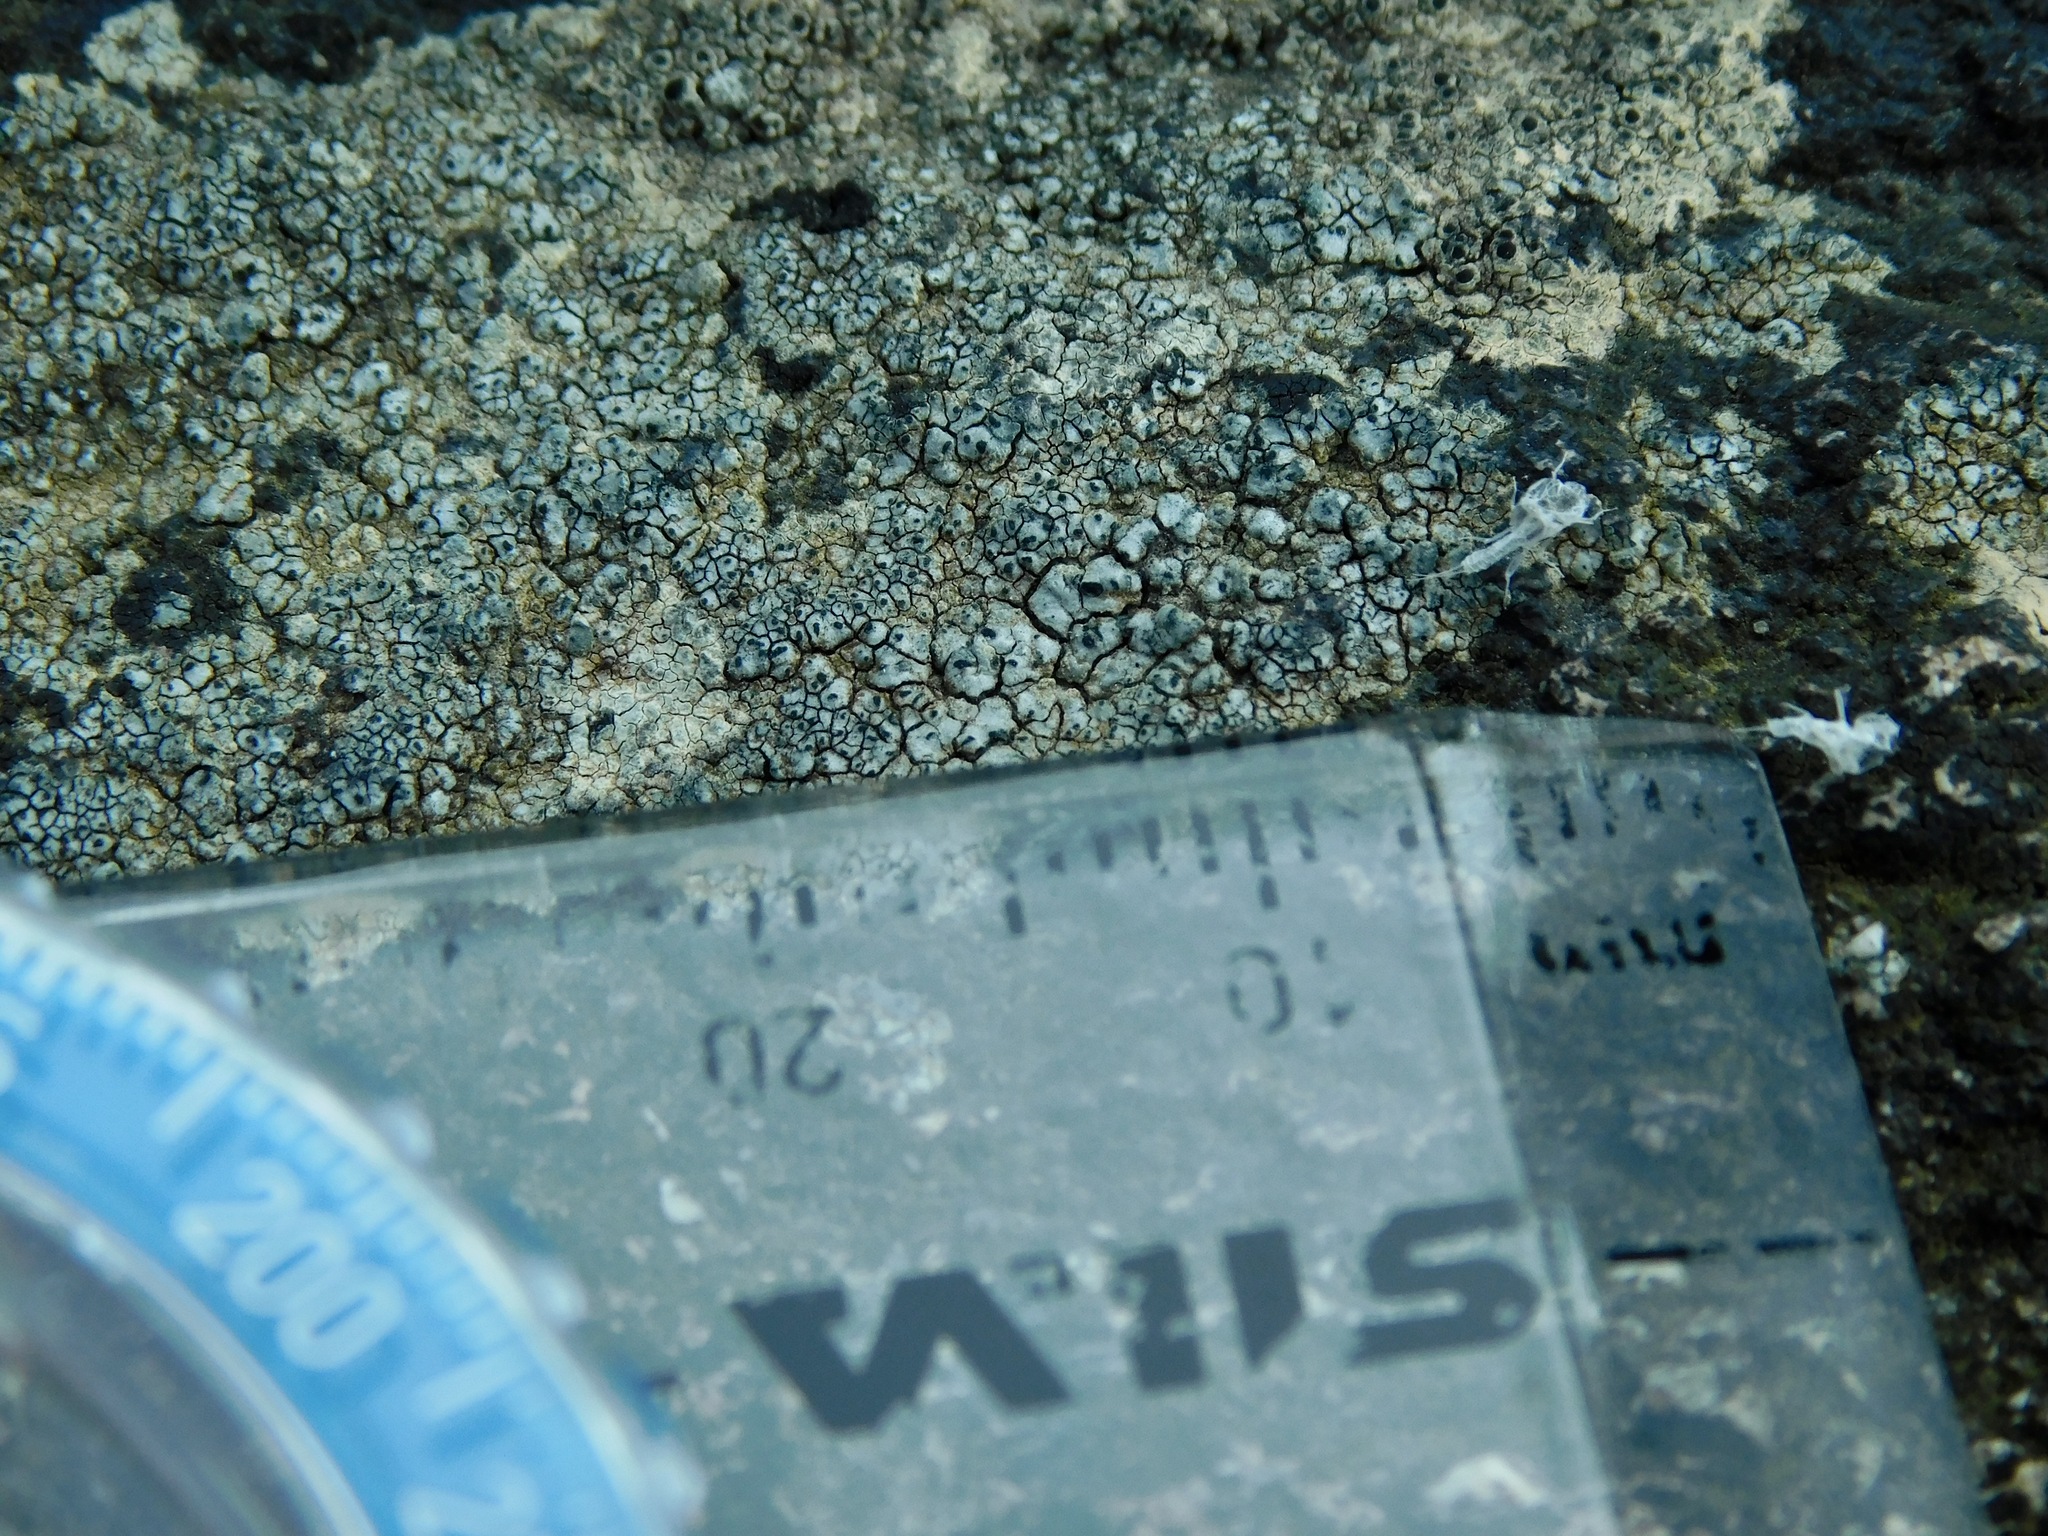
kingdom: Fungi
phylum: Ascomycota
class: Lecanoromycetes
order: Lecanorales
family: Lecanoraceae
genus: Lecanora
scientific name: Lecanora oreinoides
